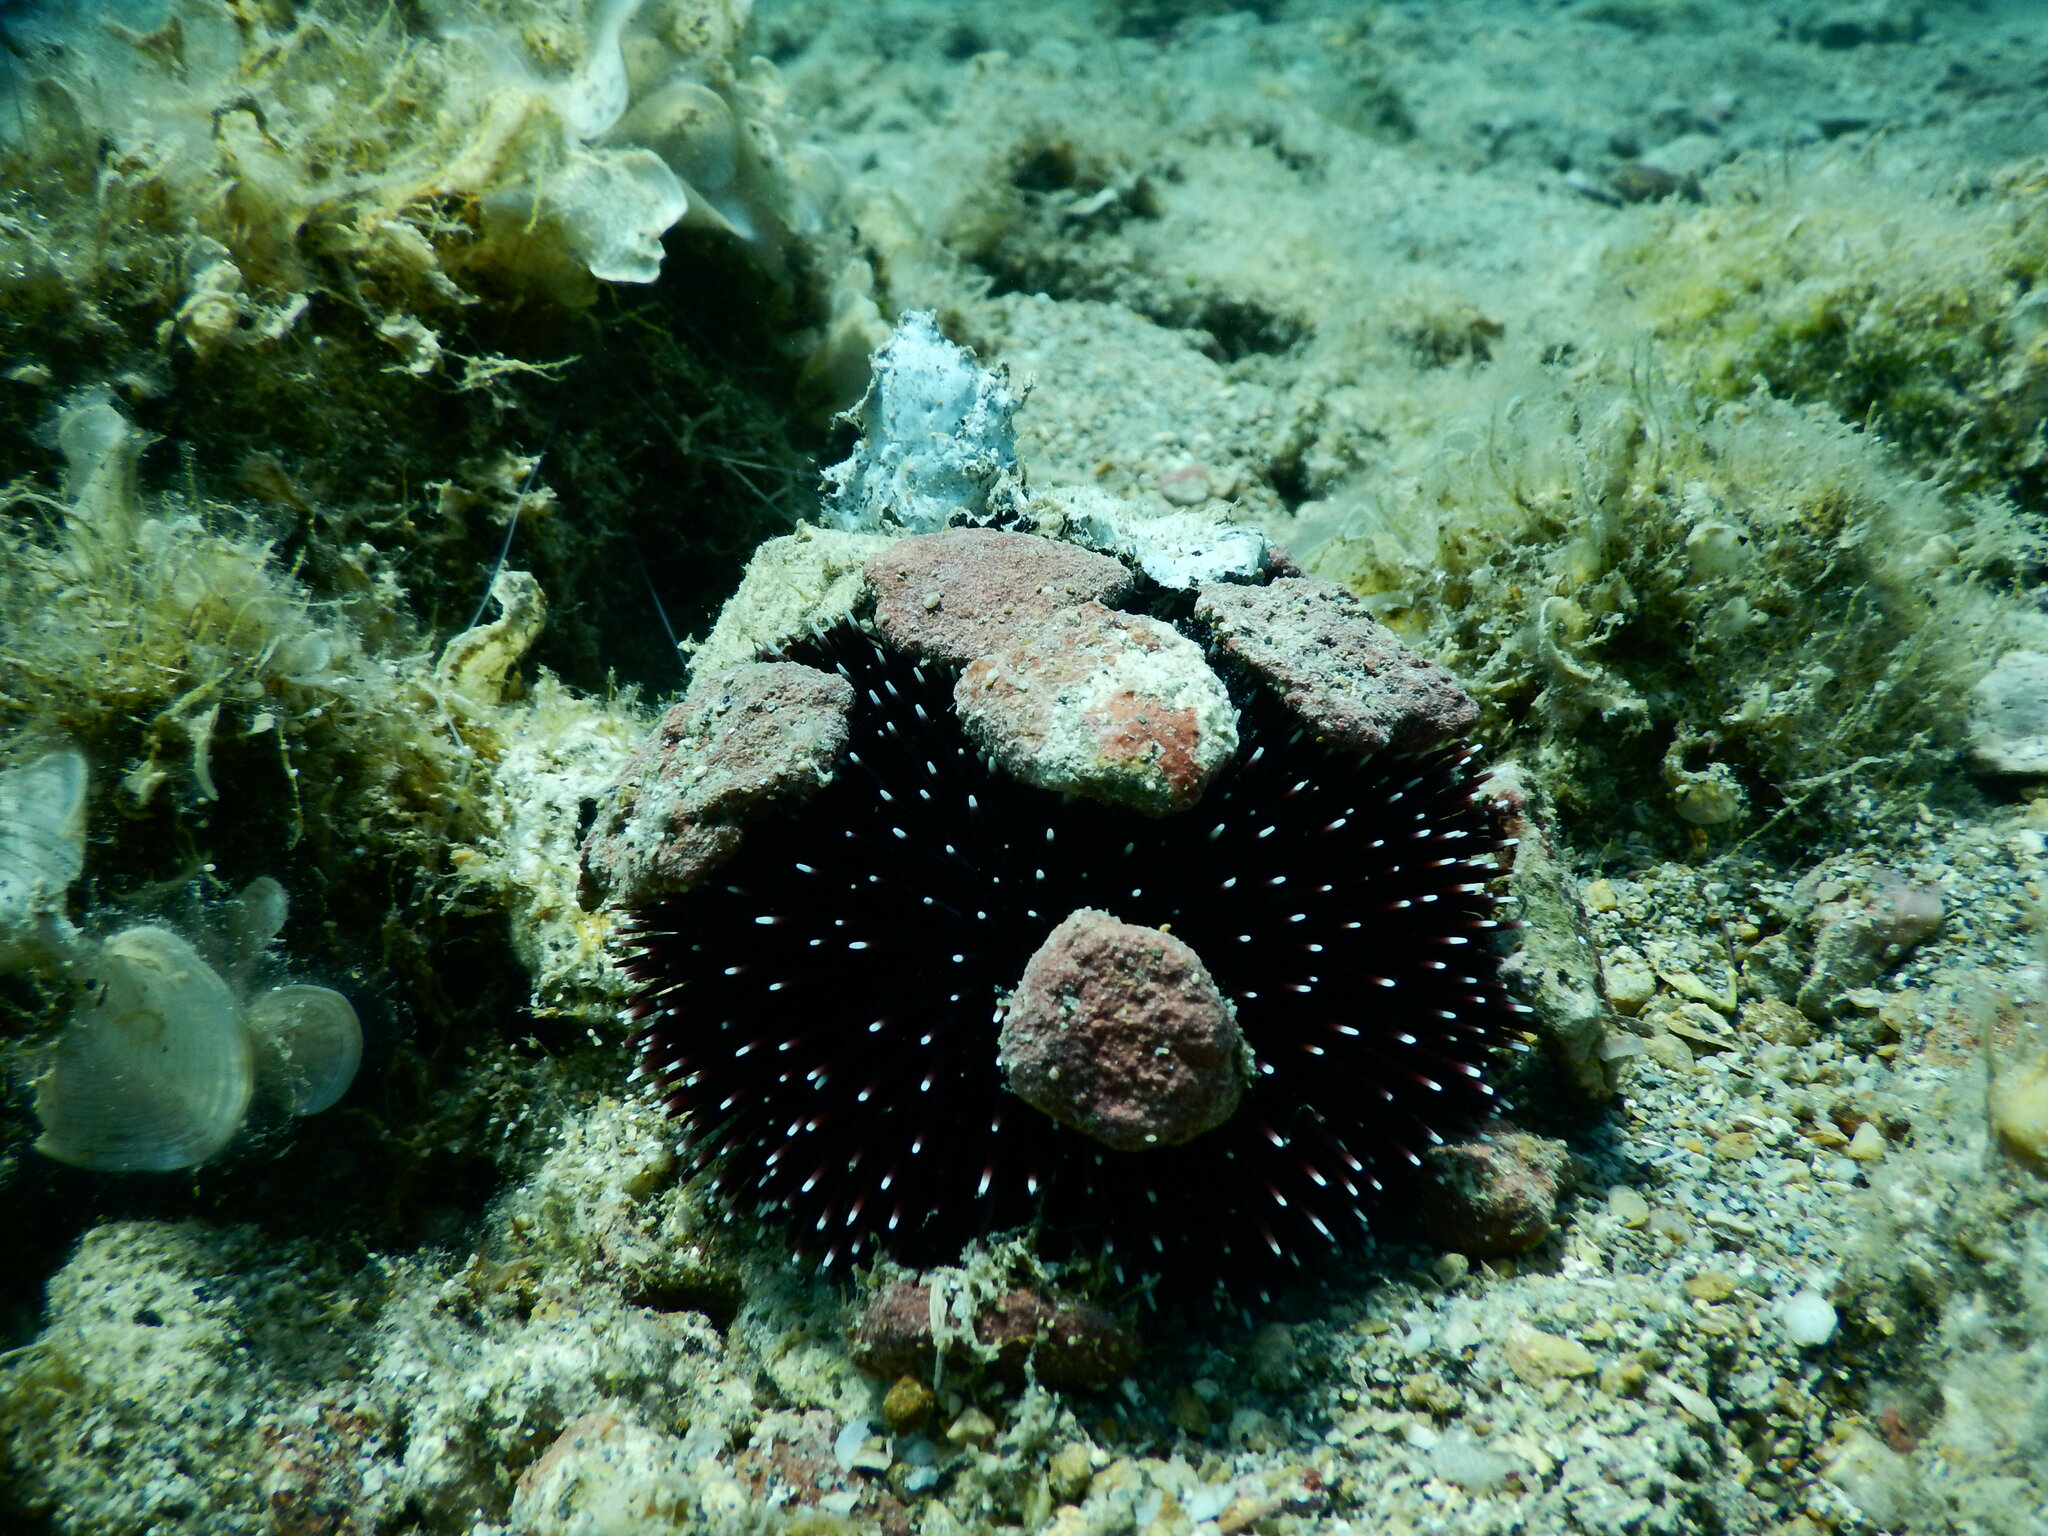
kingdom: Animalia
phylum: Echinodermata
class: Echinoidea
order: Camarodonta
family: Toxopneustidae
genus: Sphaerechinus
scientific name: Sphaerechinus granularis
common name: Violet sea urchin
